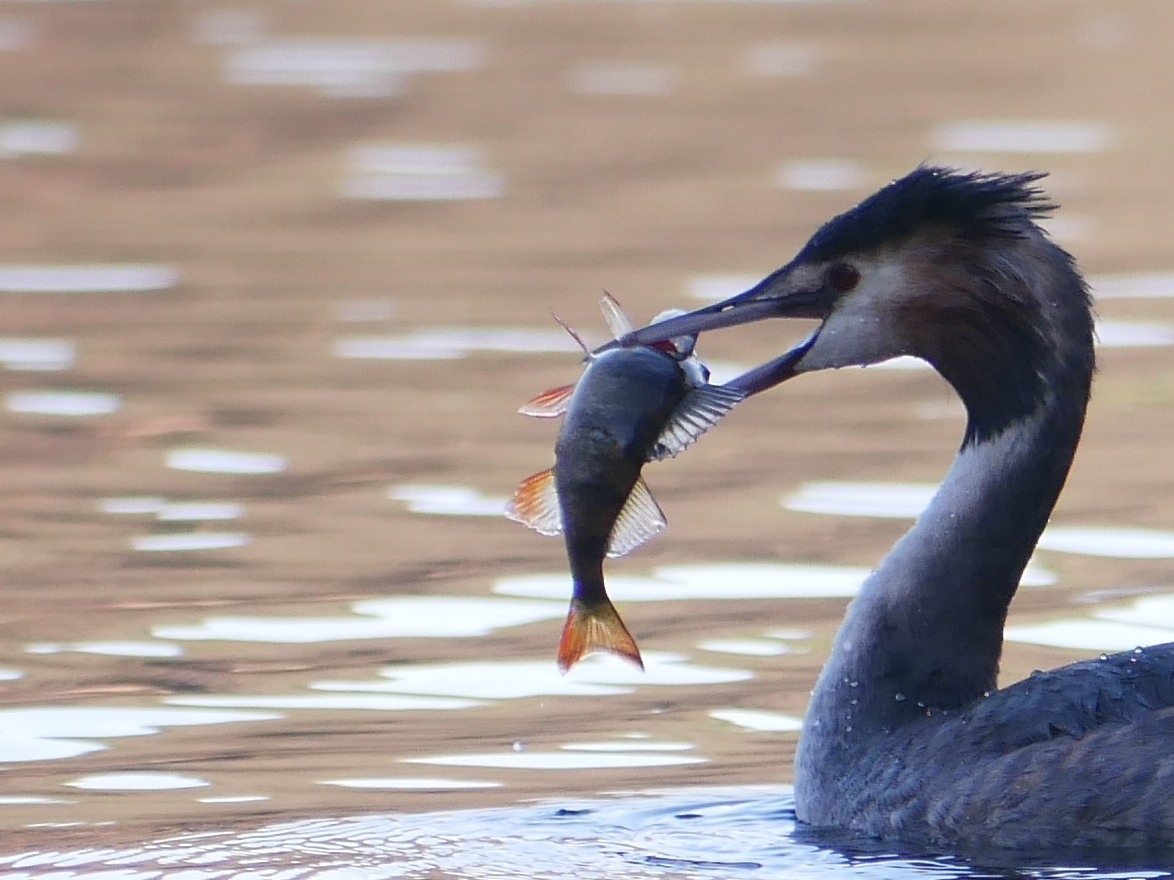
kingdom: Animalia
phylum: Chordata
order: Perciformes
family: Percidae
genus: Perca
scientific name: Perca fluviatilis
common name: Perch
